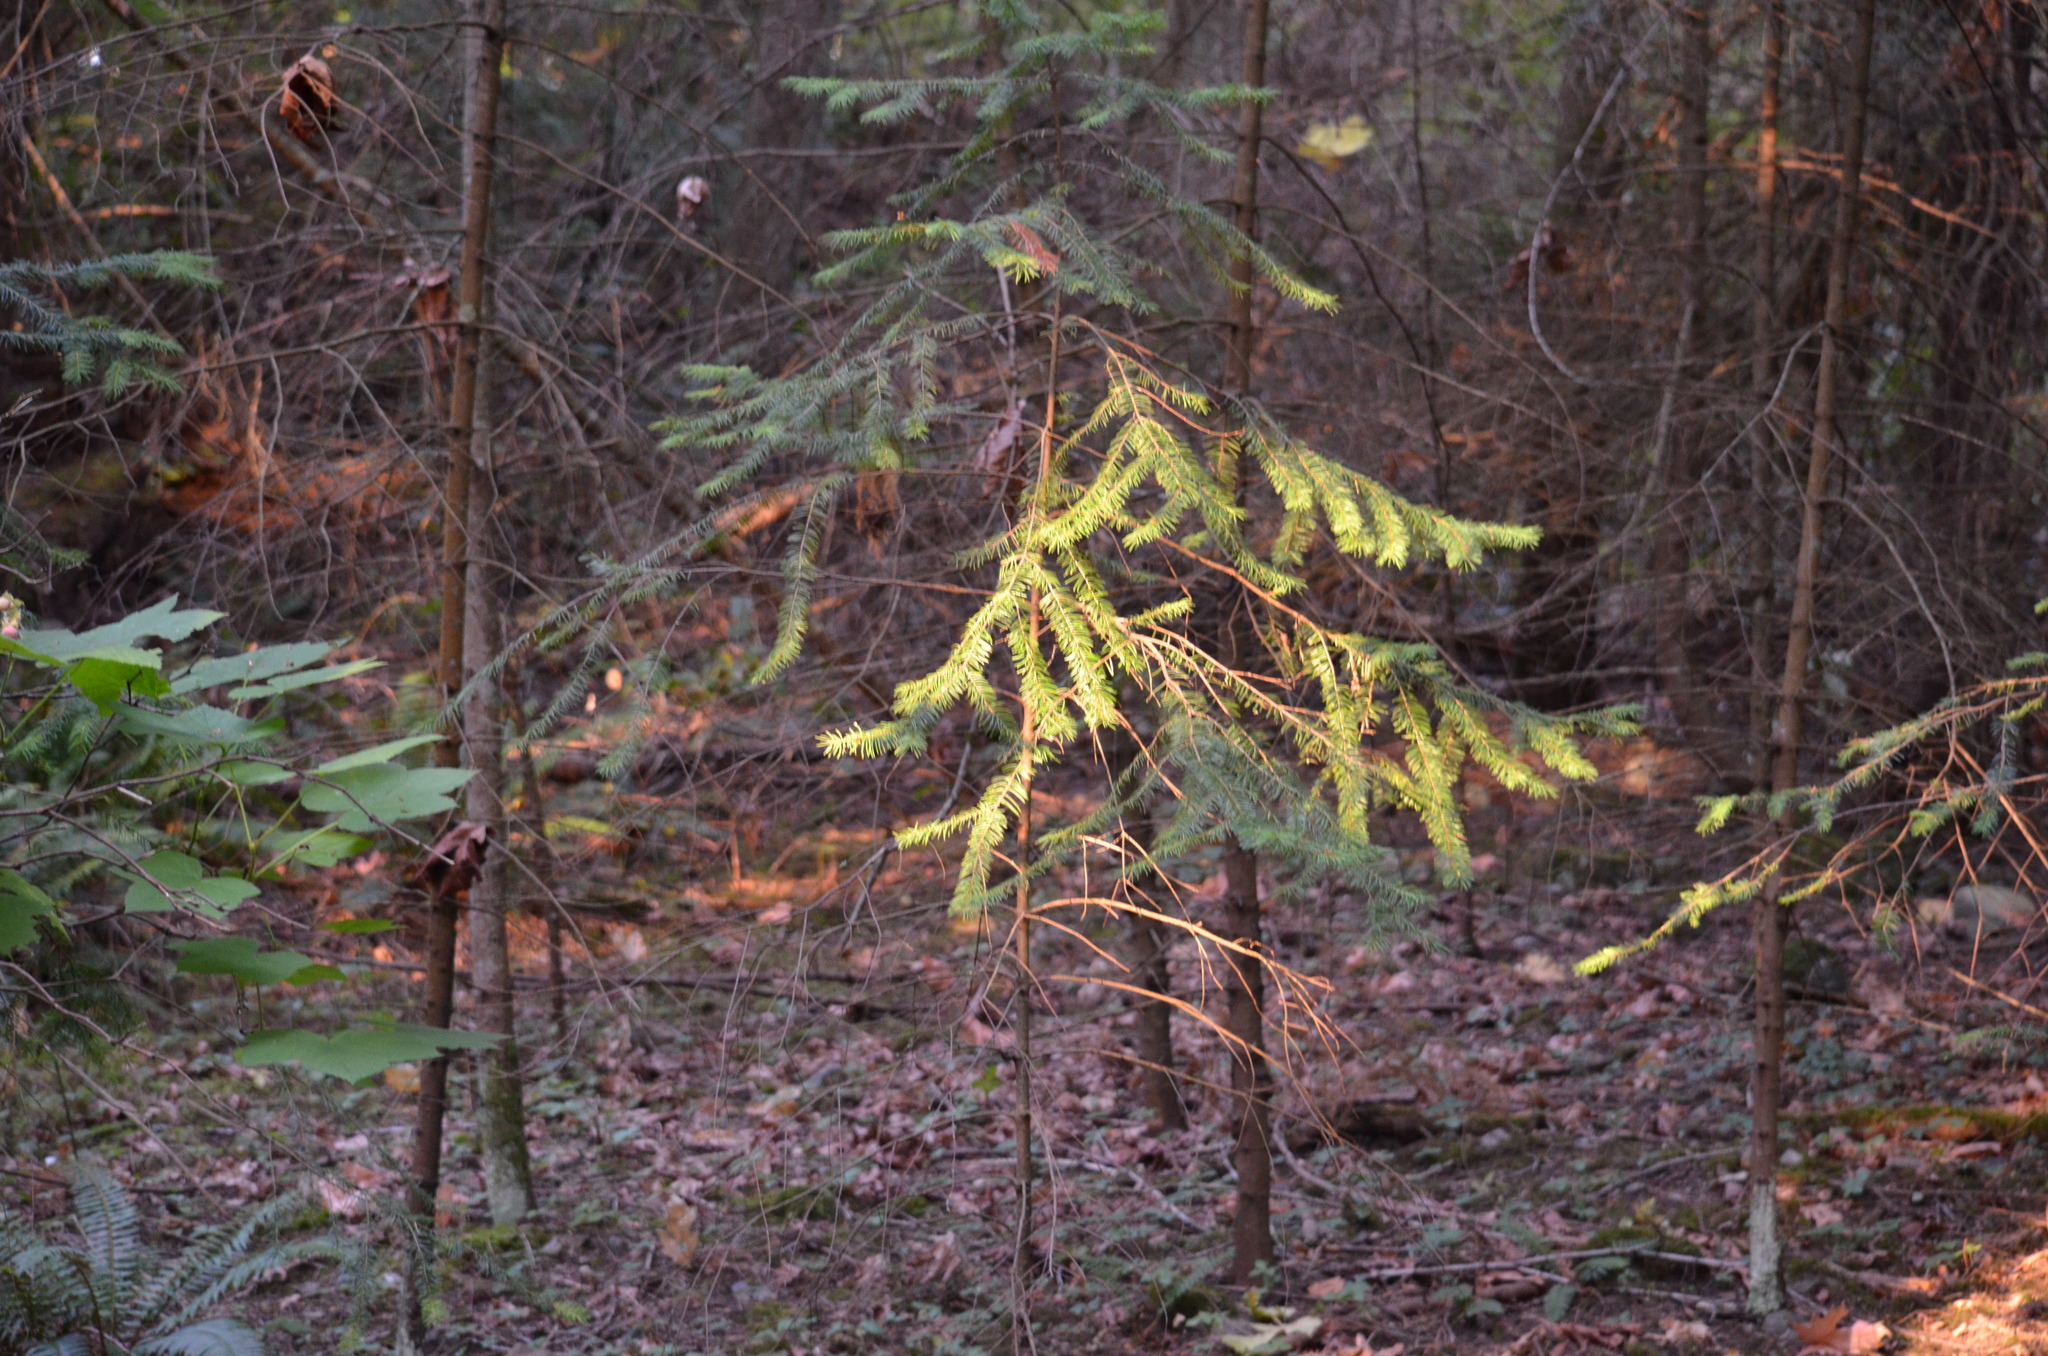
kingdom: Plantae
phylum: Tracheophyta
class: Pinopsida
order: Pinales
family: Pinaceae
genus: Abies
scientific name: Abies grandis
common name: Giant fir
